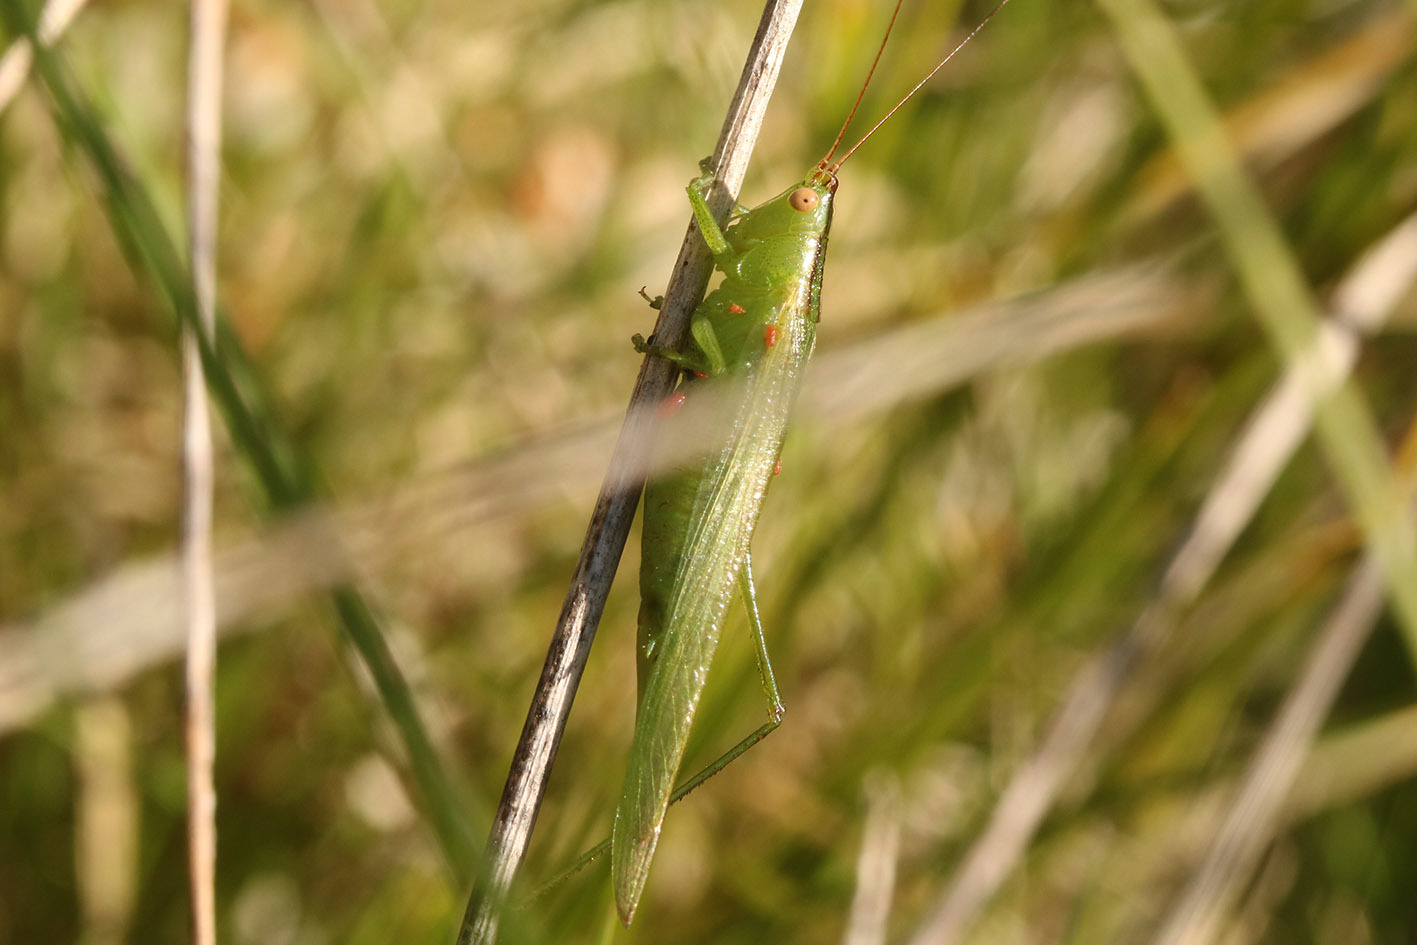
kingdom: Animalia
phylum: Arthropoda
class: Insecta
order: Orthoptera
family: Tettigoniidae
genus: Conocephalus
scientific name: Conocephalus longipes
